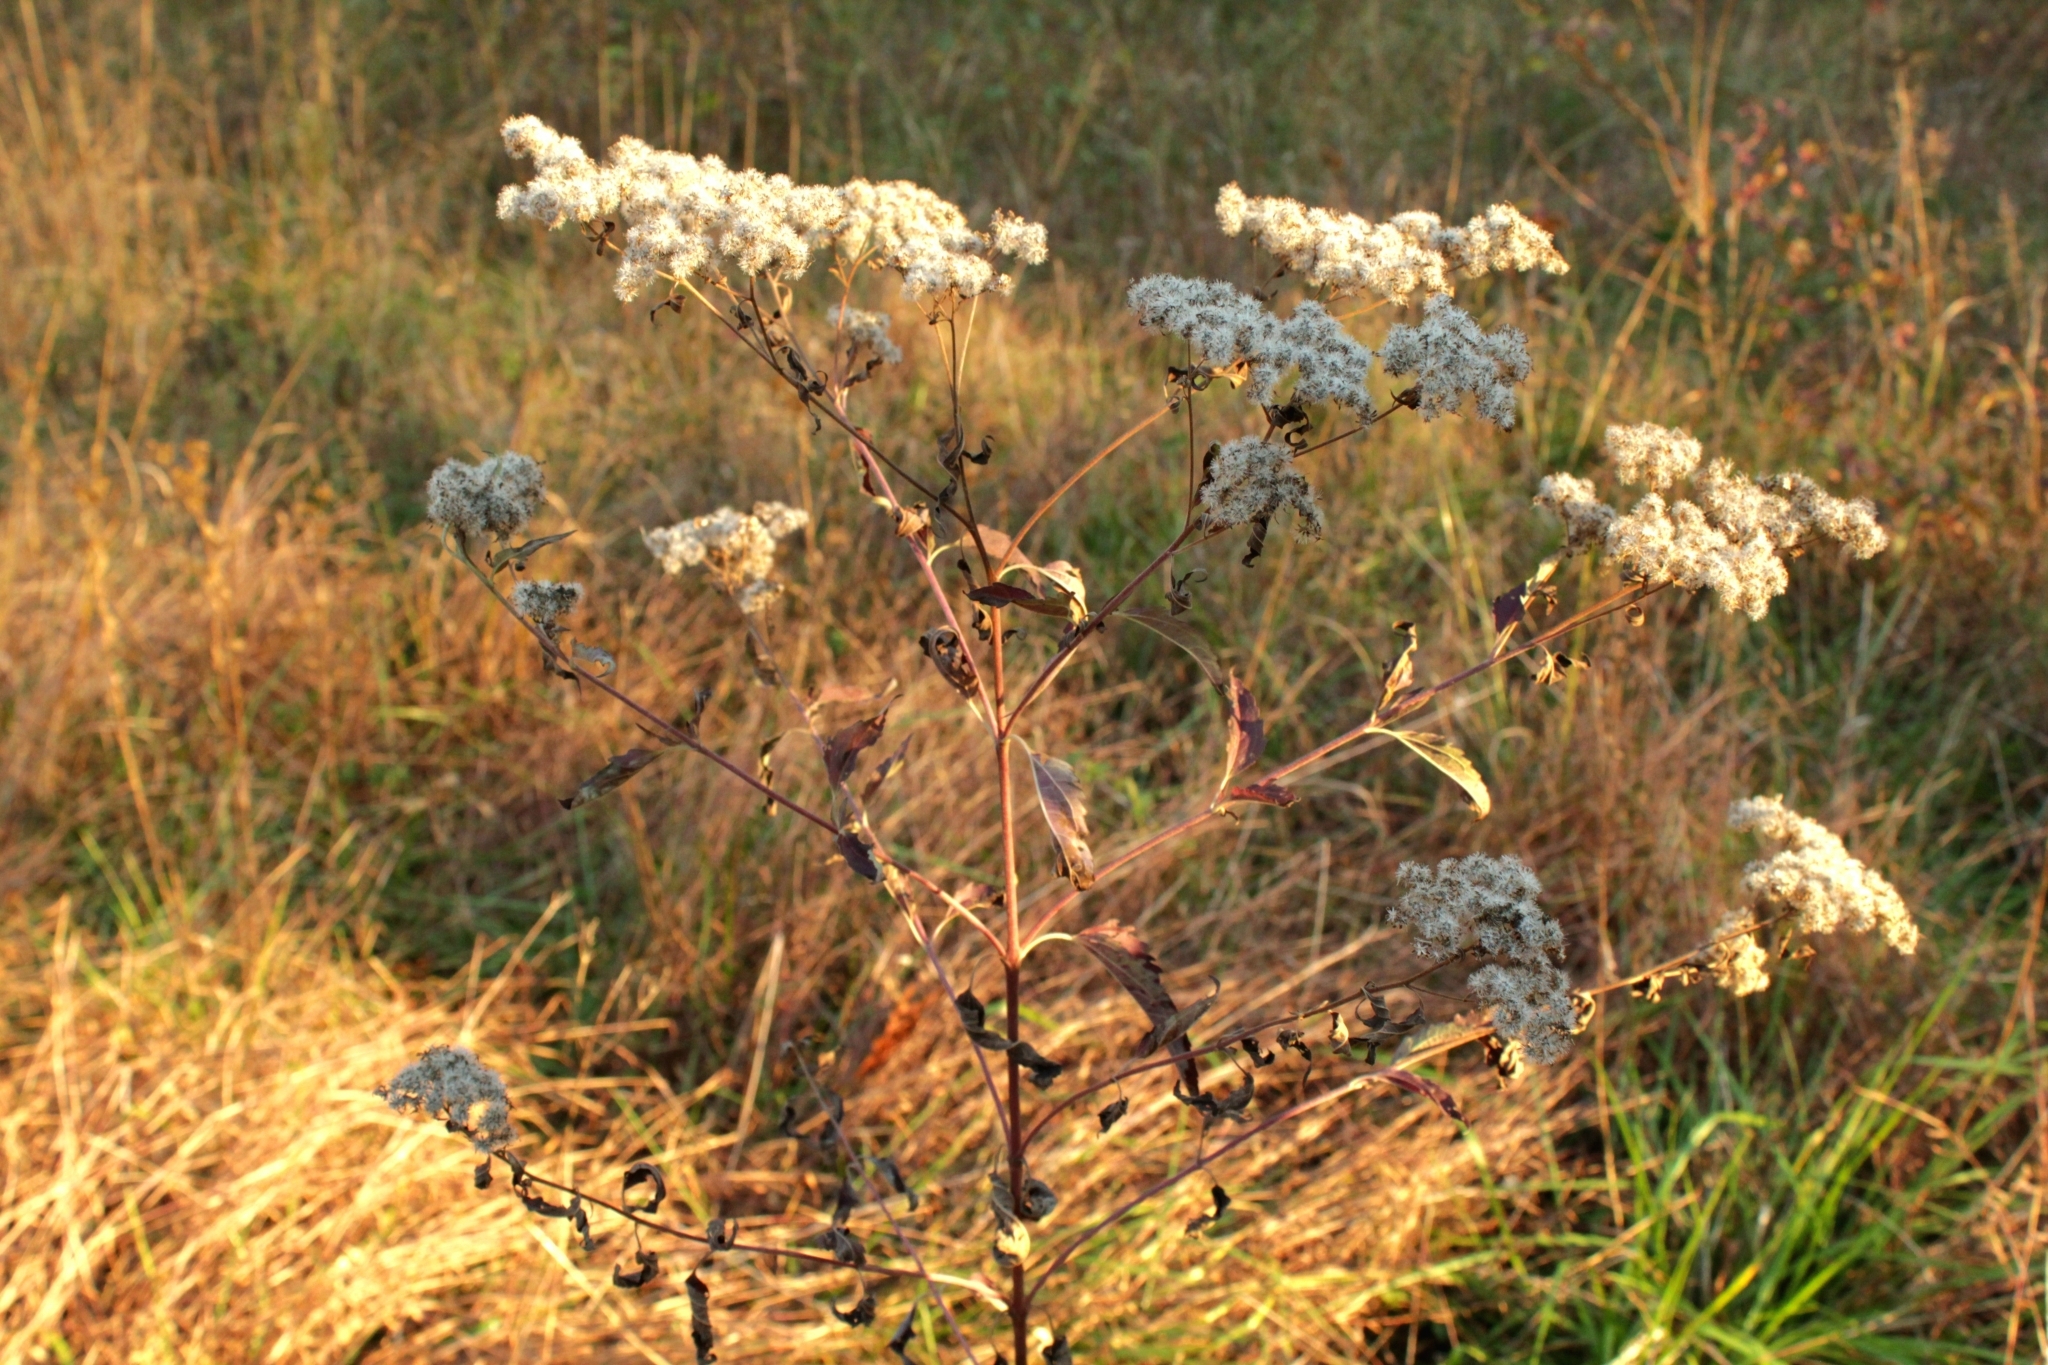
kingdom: Plantae
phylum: Tracheophyta
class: Magnoliopsida
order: Asterales
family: Asteraceae
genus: Eupatorium
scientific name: Eupatorium serotinum
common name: Late boneset
